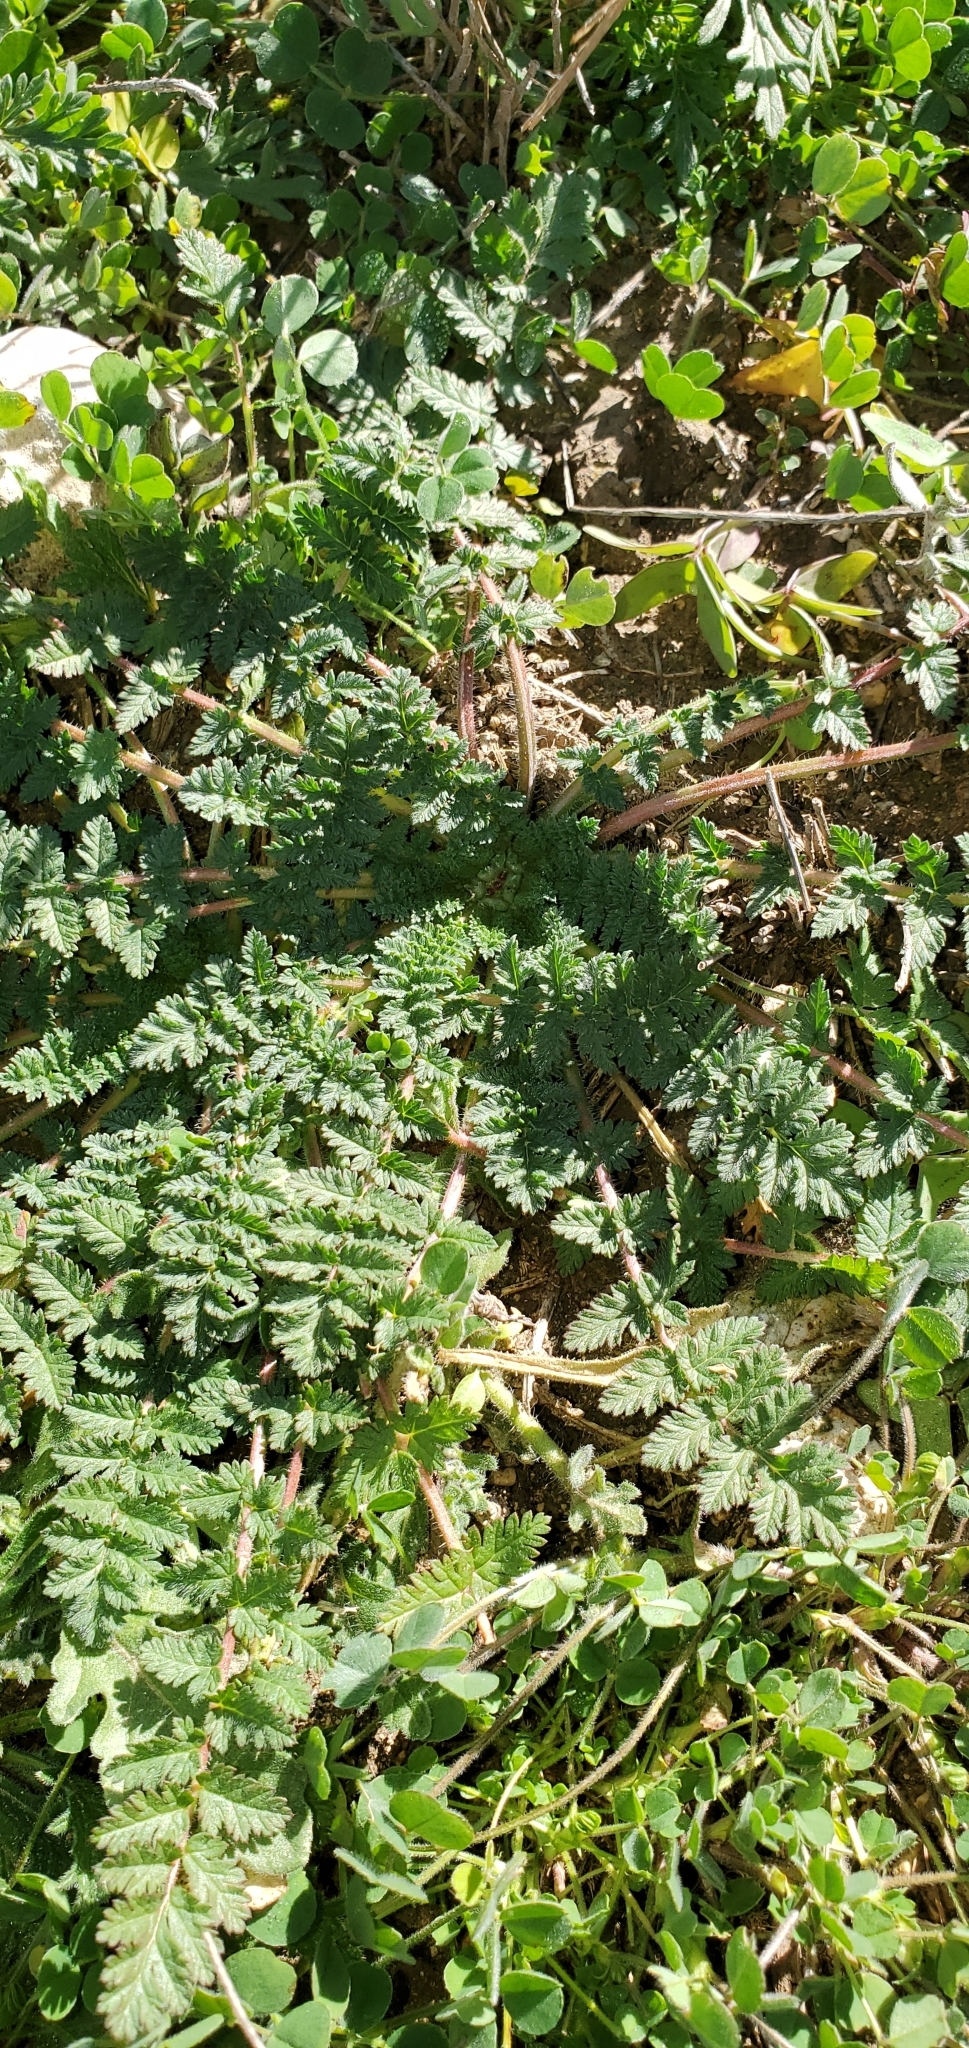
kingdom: Plantae
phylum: Tracheophyta
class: Magnoliopsida
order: Geraniales
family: Geraniaceae
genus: Erodium
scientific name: Erodium cicutarium
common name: Common stork's-bill
